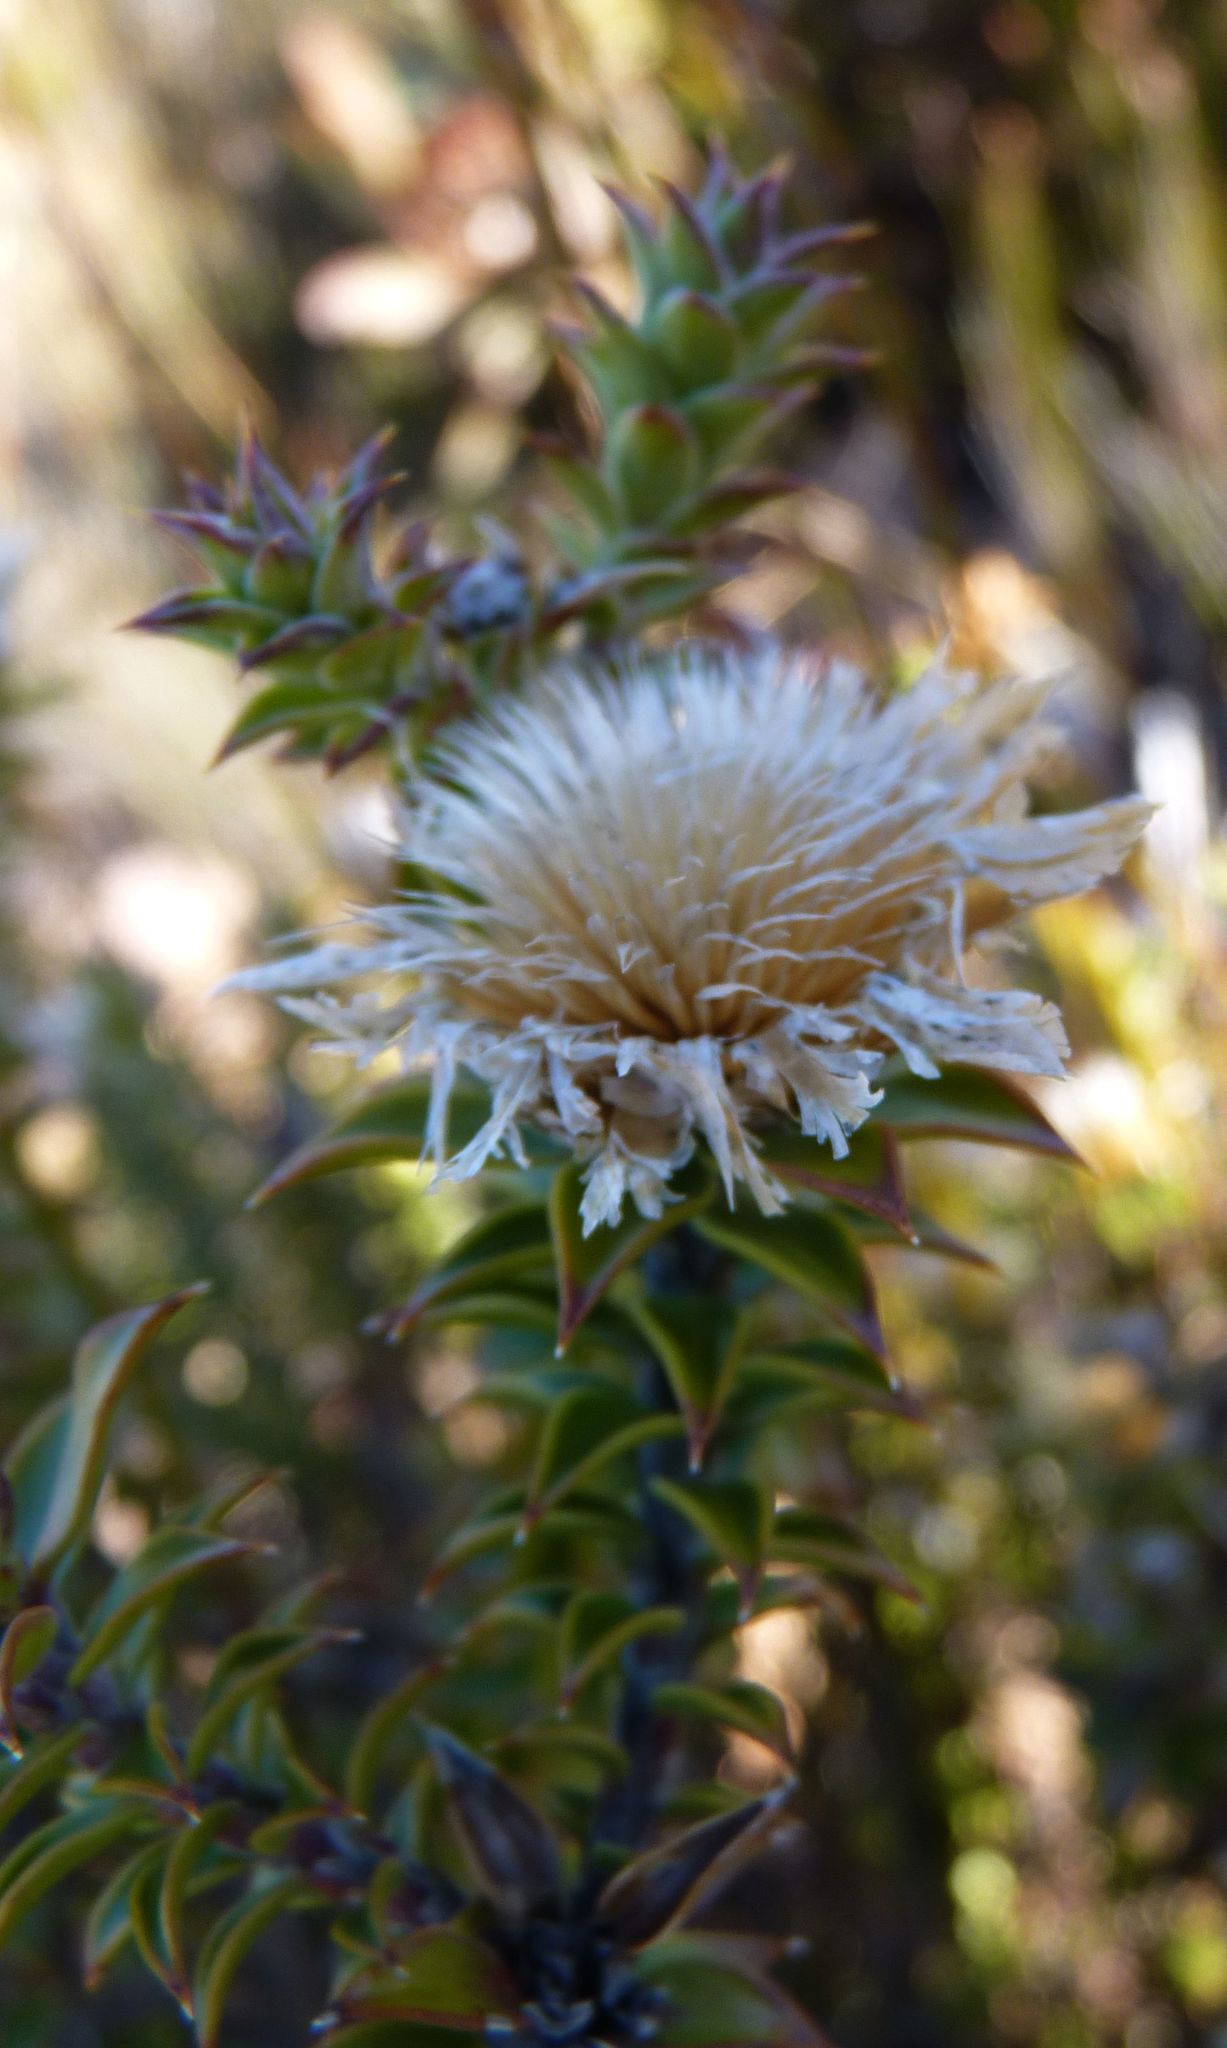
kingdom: Plantae
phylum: Tracheophyta
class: Magnoliopsida
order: Asterales
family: Asteraceae
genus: Oedera
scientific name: Oedera speciosa
